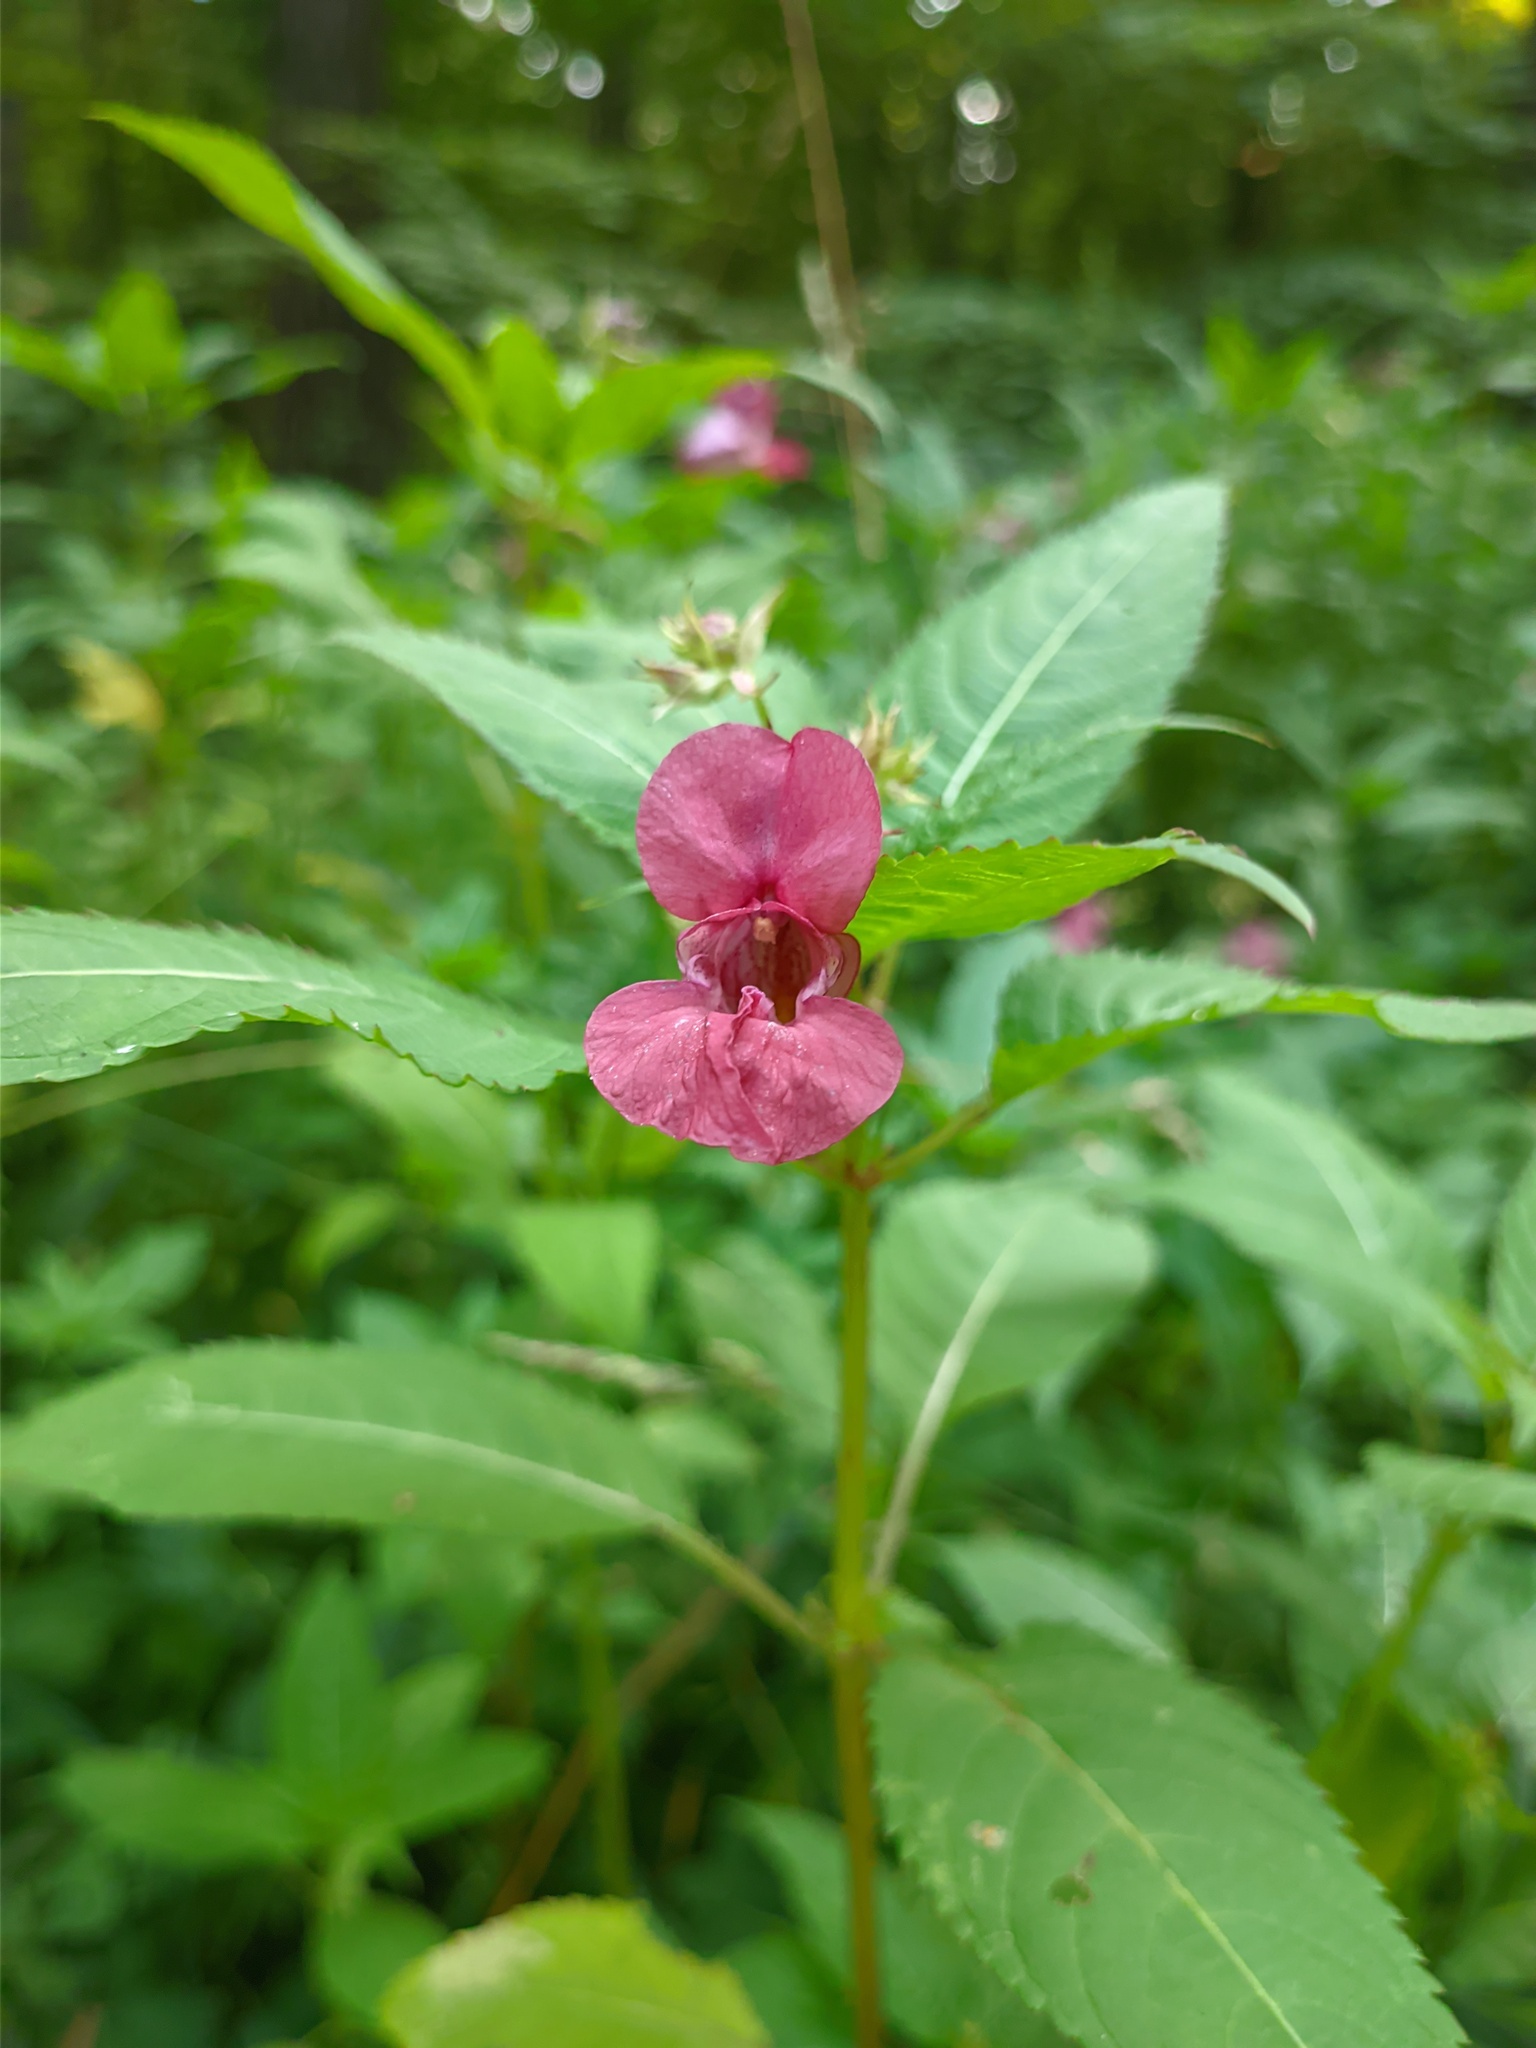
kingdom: Plantae
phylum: Tracheophyta
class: Magnoliopsida
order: Ericales
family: Balsaminaceae
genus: Impatiens
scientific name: Impatiens glandulifera
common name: Himalayan balsam
